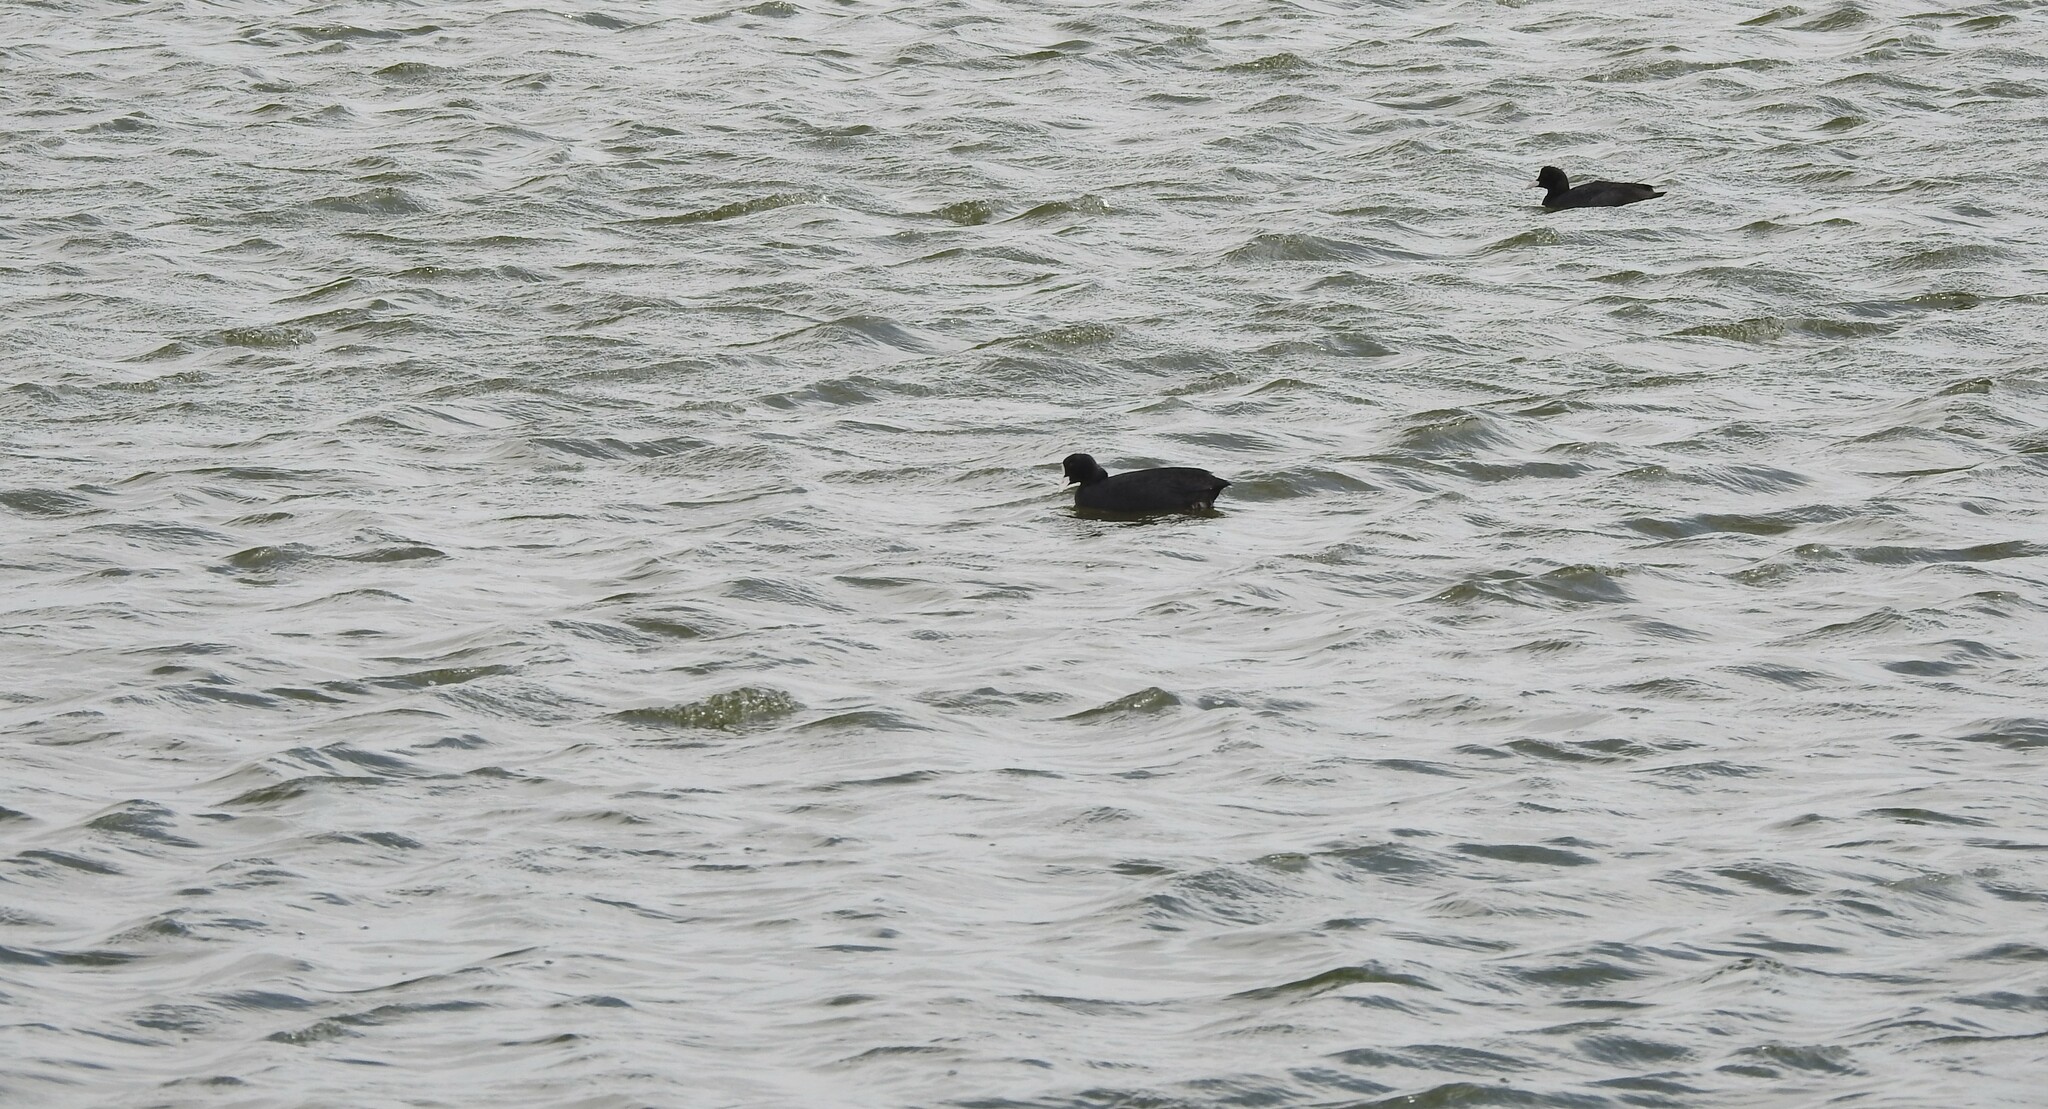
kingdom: Animalia
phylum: Chordata
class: Aves
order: Gruiformes
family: Rallidae
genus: Fulica
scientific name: Fulica atra
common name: Eurasian coot
